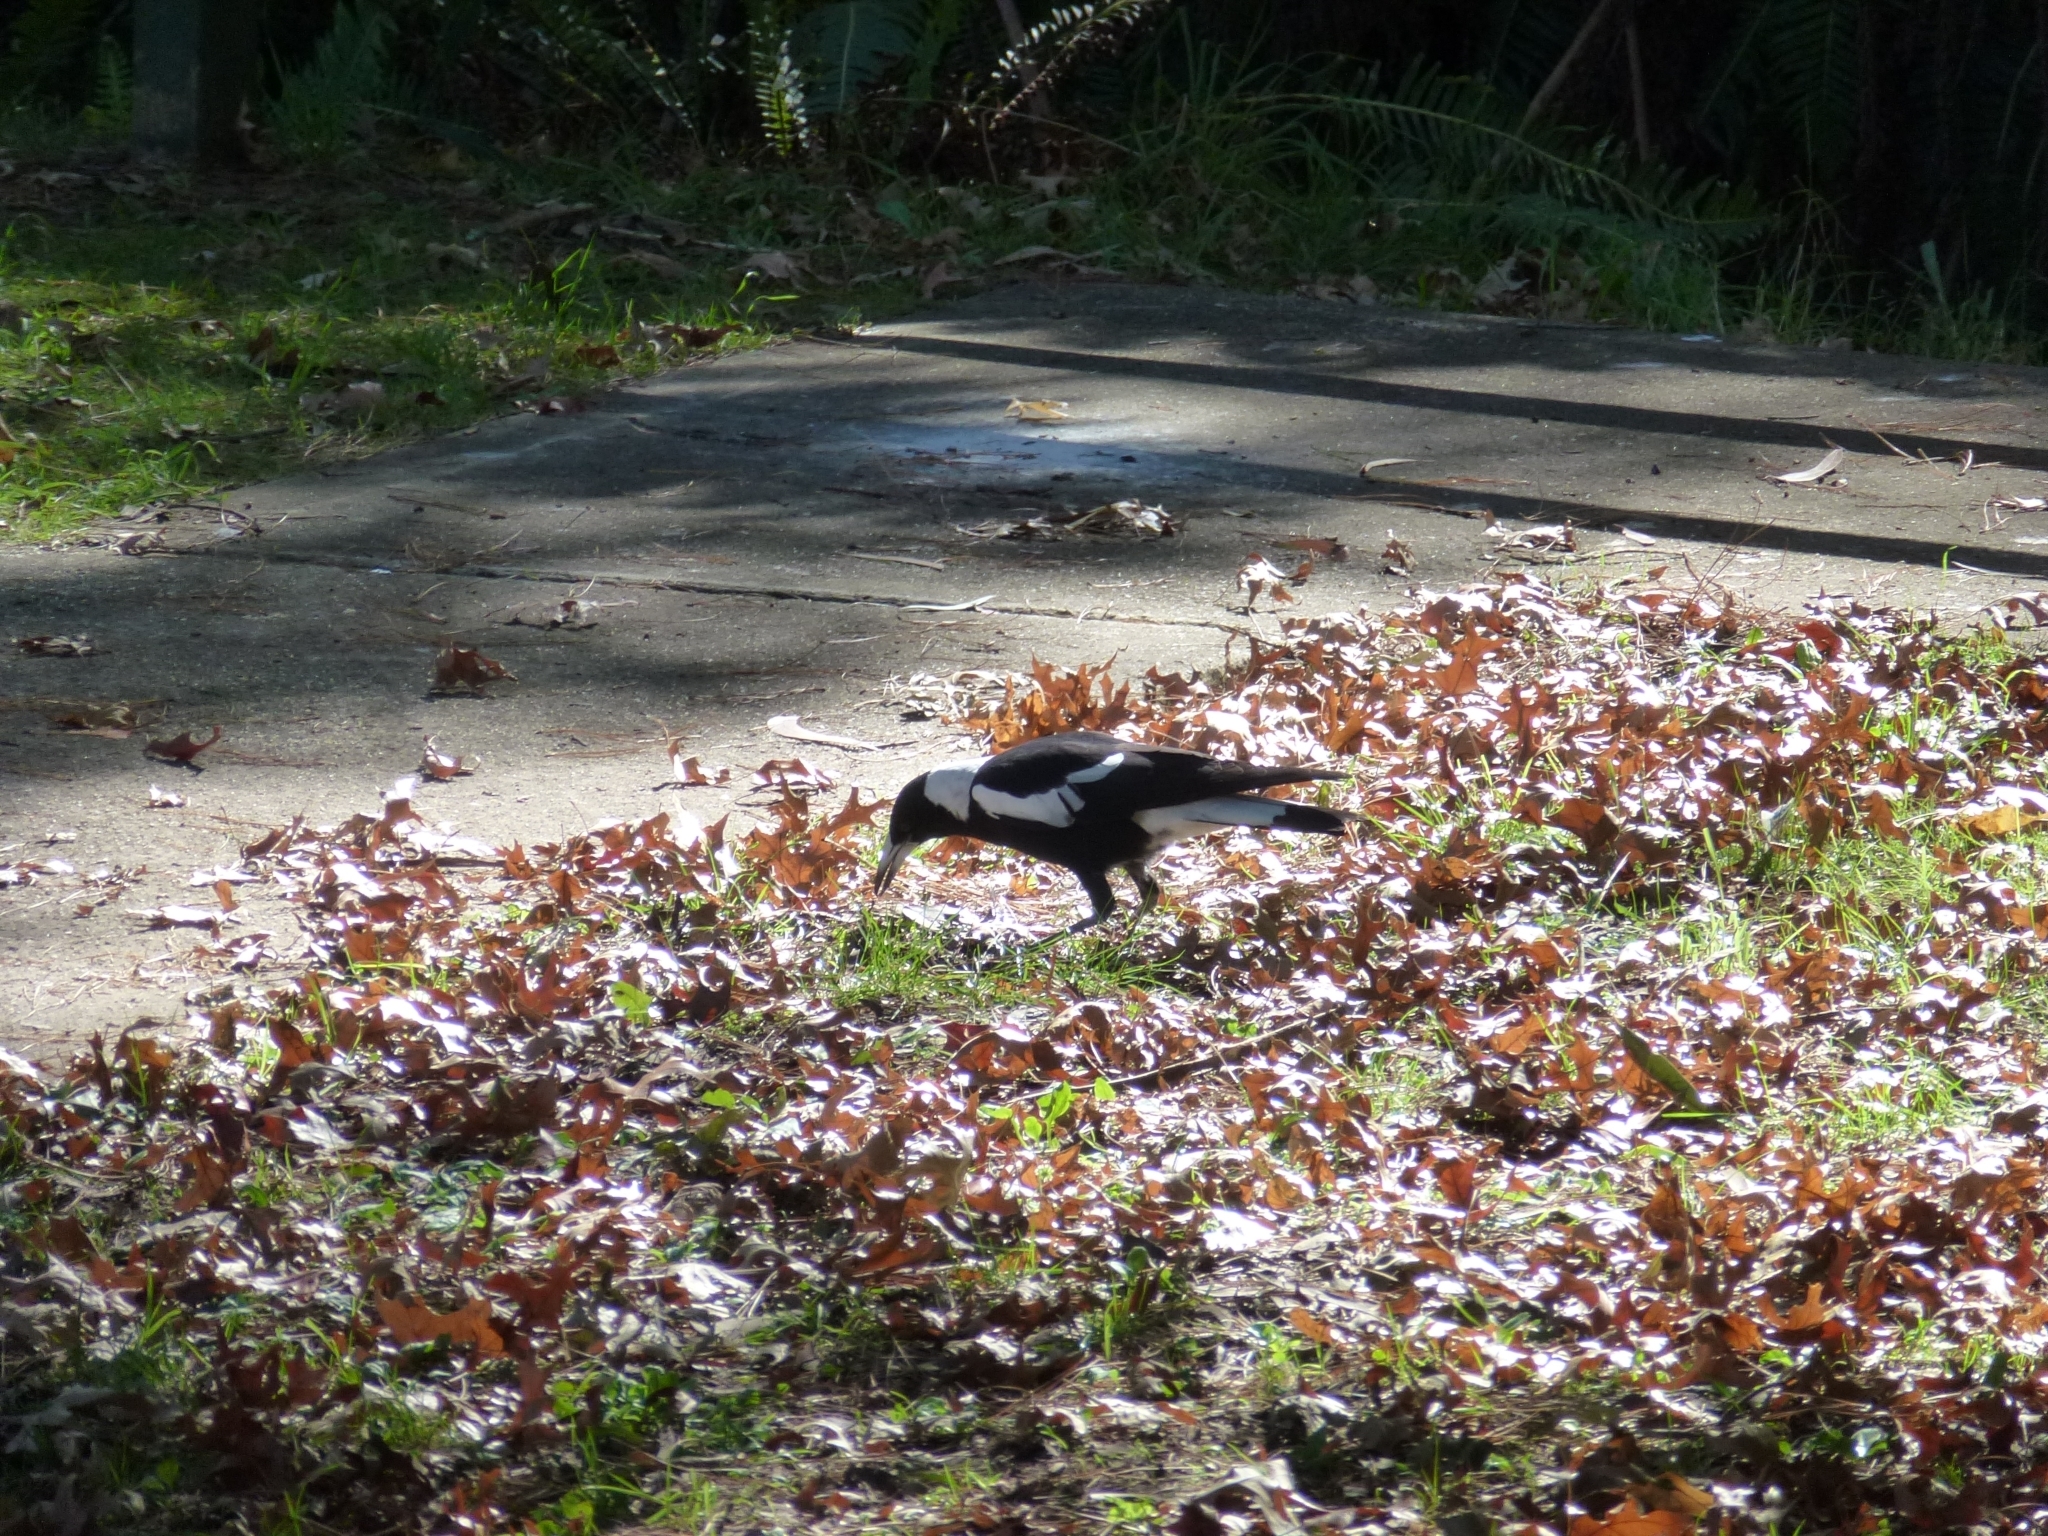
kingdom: Animalia
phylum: Chordata
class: Aves
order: Passeriformes
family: Cracticidae
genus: Gymnorhina
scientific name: Gymnorhina tibicen
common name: Australian magpie
